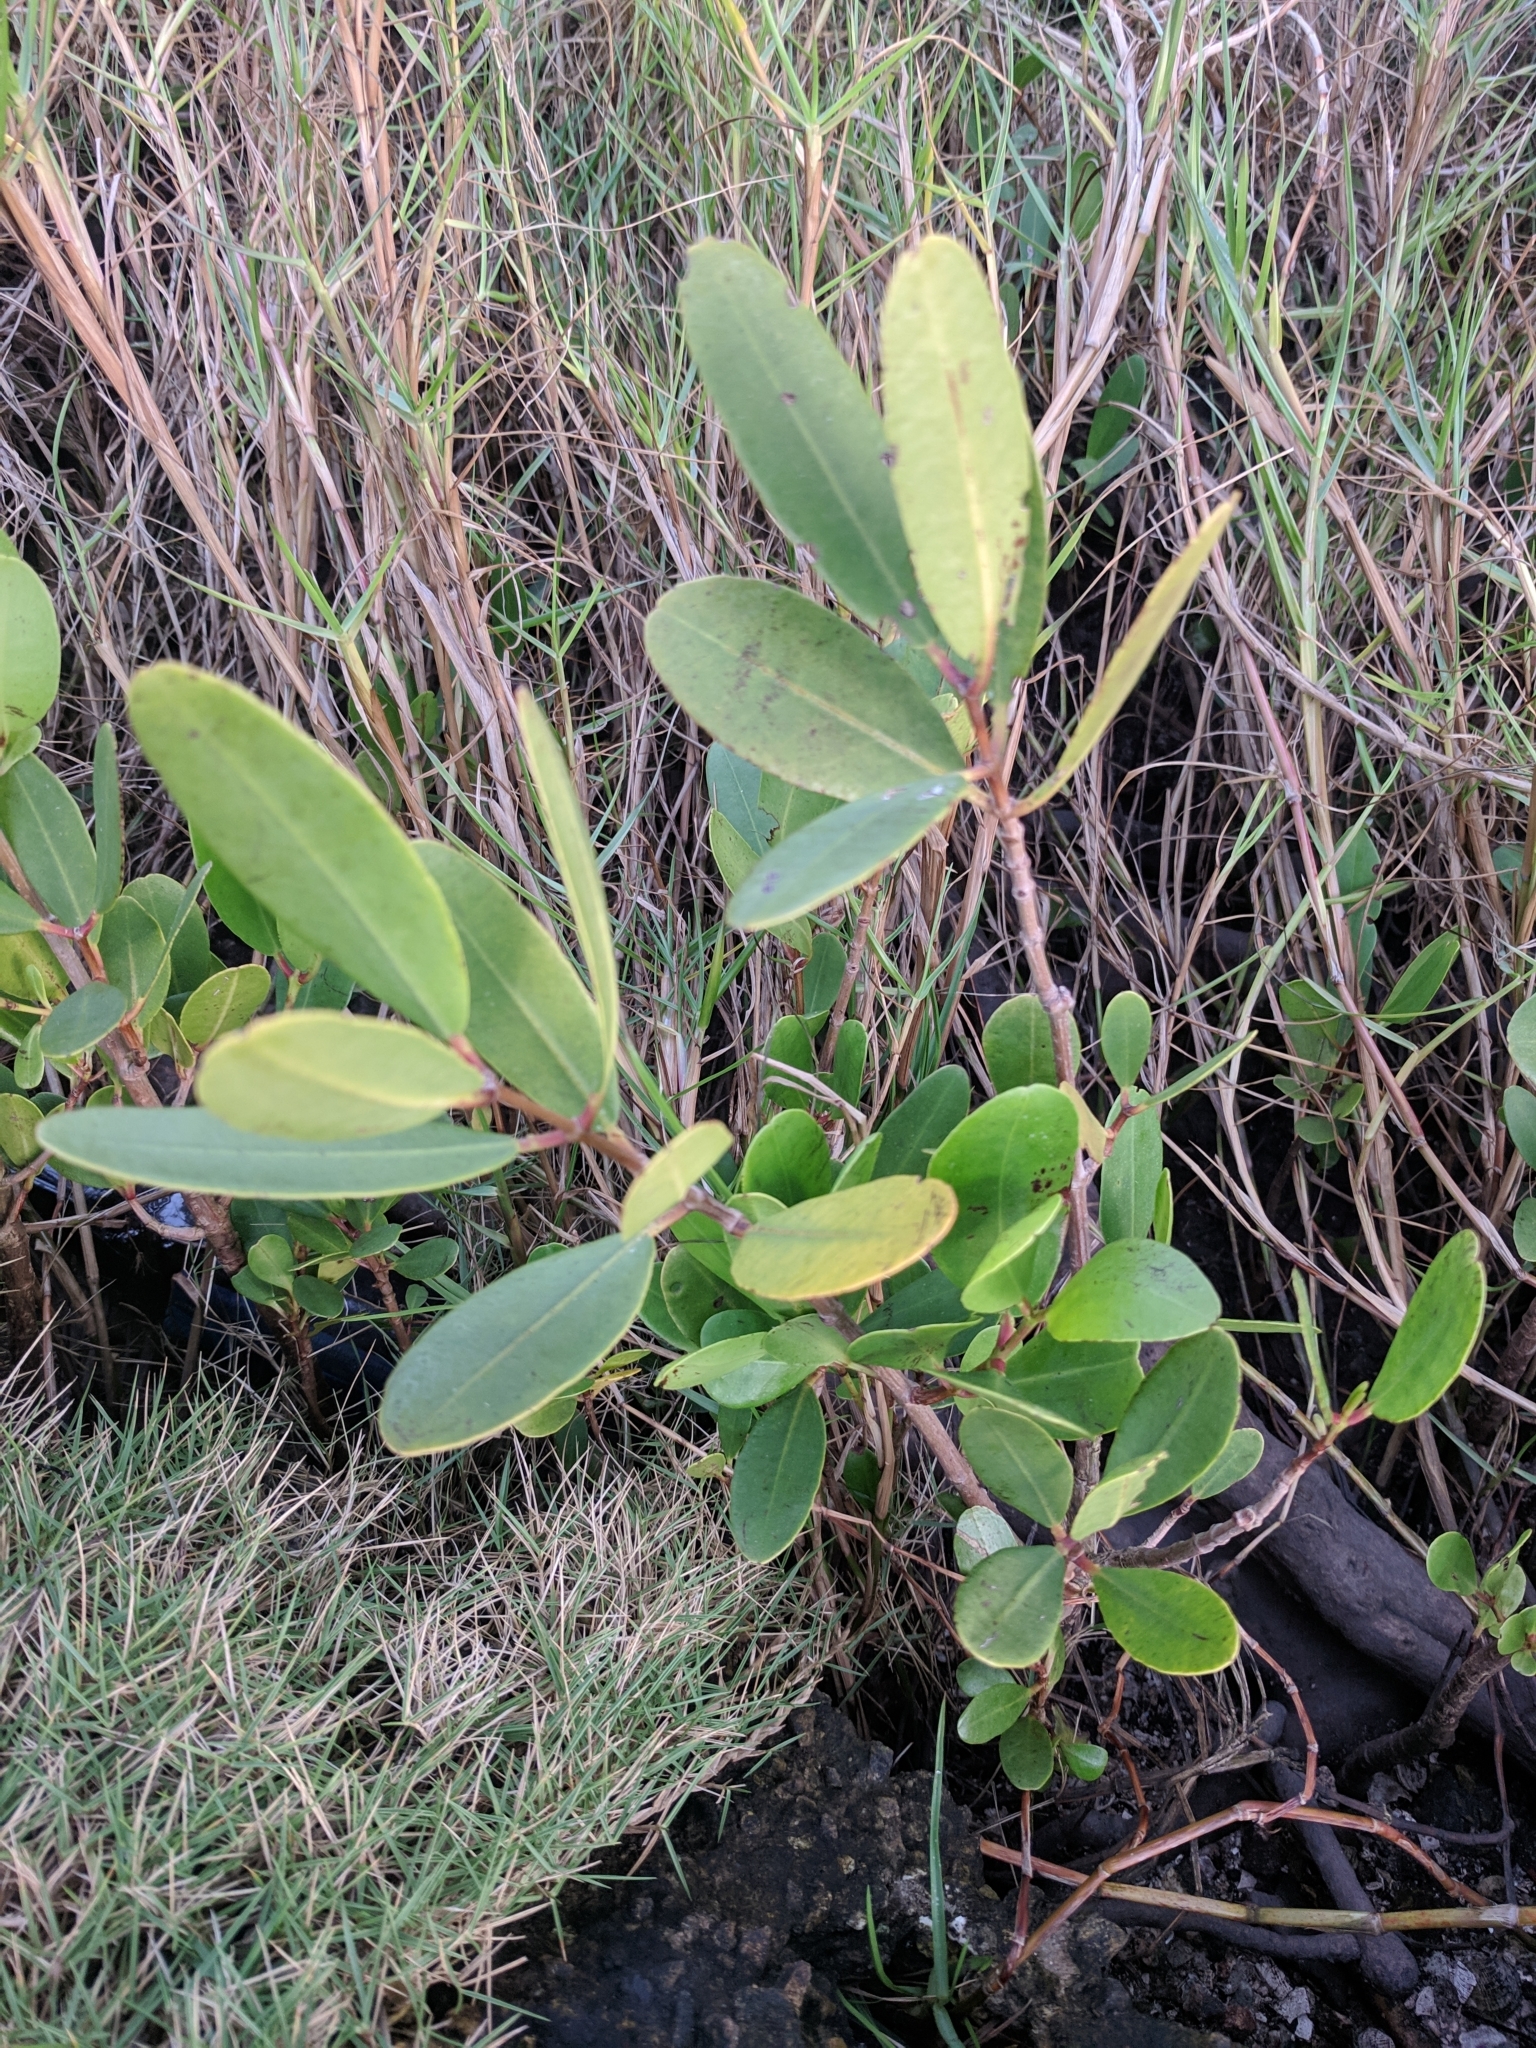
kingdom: Plantae
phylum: Tracheophyta
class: Magnoliopsida
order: Myrtales
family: Combretaceae
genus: Laguncularia
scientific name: Laguncularia racemosa
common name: White mangrove
